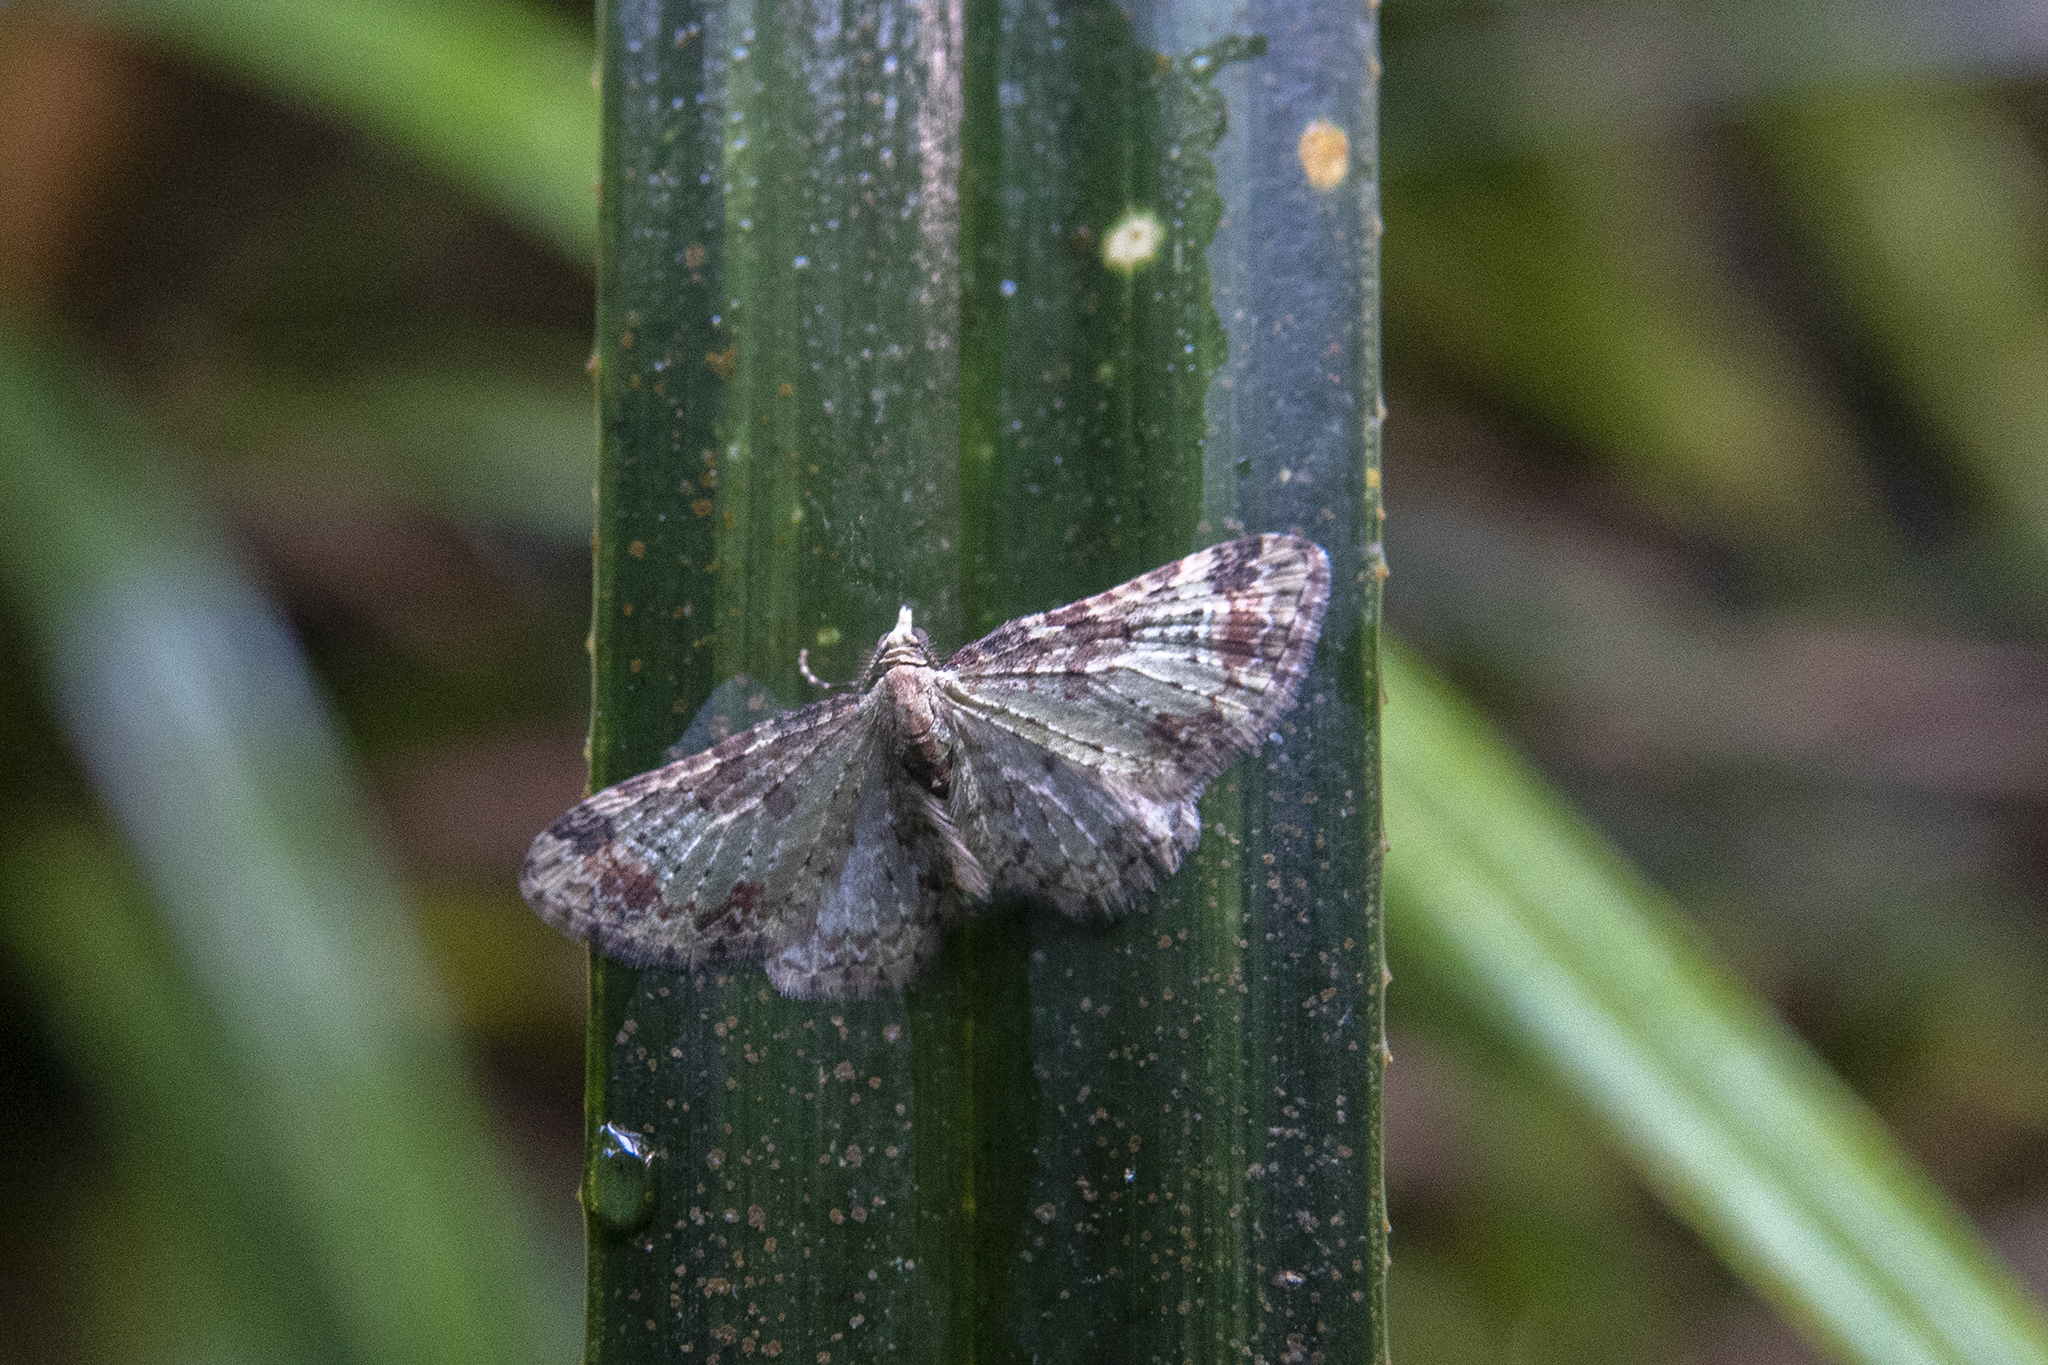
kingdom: Animalia
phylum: Arthropoda
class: Insecta
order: Lepidoptera
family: Geometridae
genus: Pasiphila
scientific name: Pasiphila plinthina
